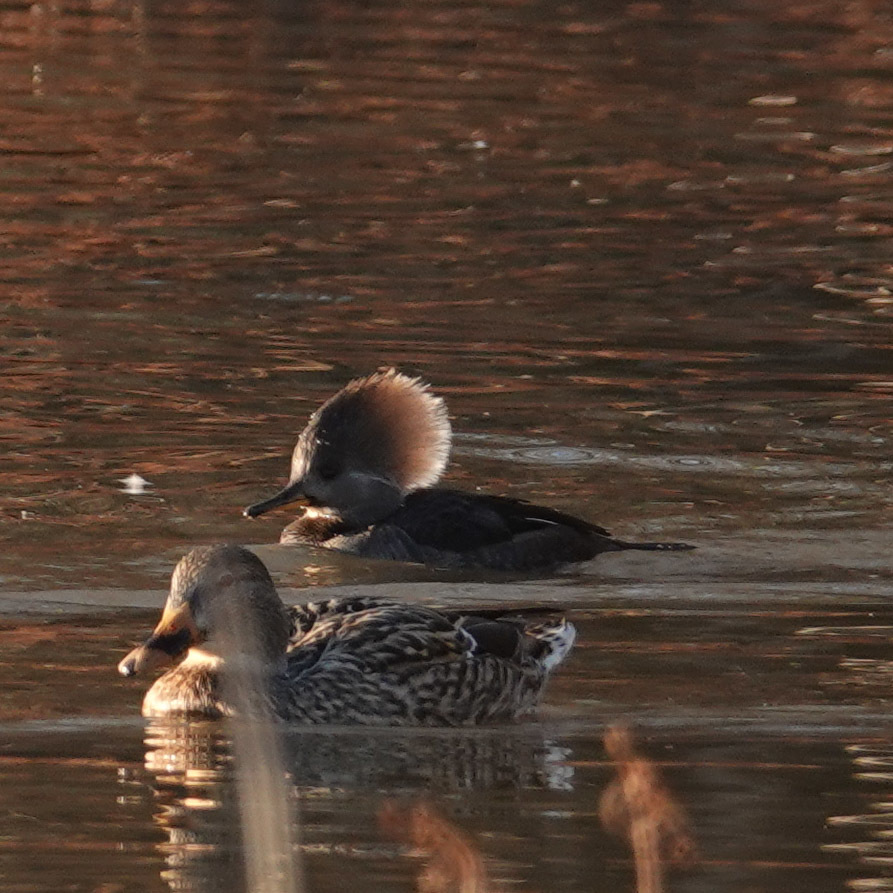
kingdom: Animalia
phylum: Chordata
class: Aves
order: Anseriformes
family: Anatidae
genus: Lophodytes
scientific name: Lophodytes cucullatus
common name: Hooded merganser
